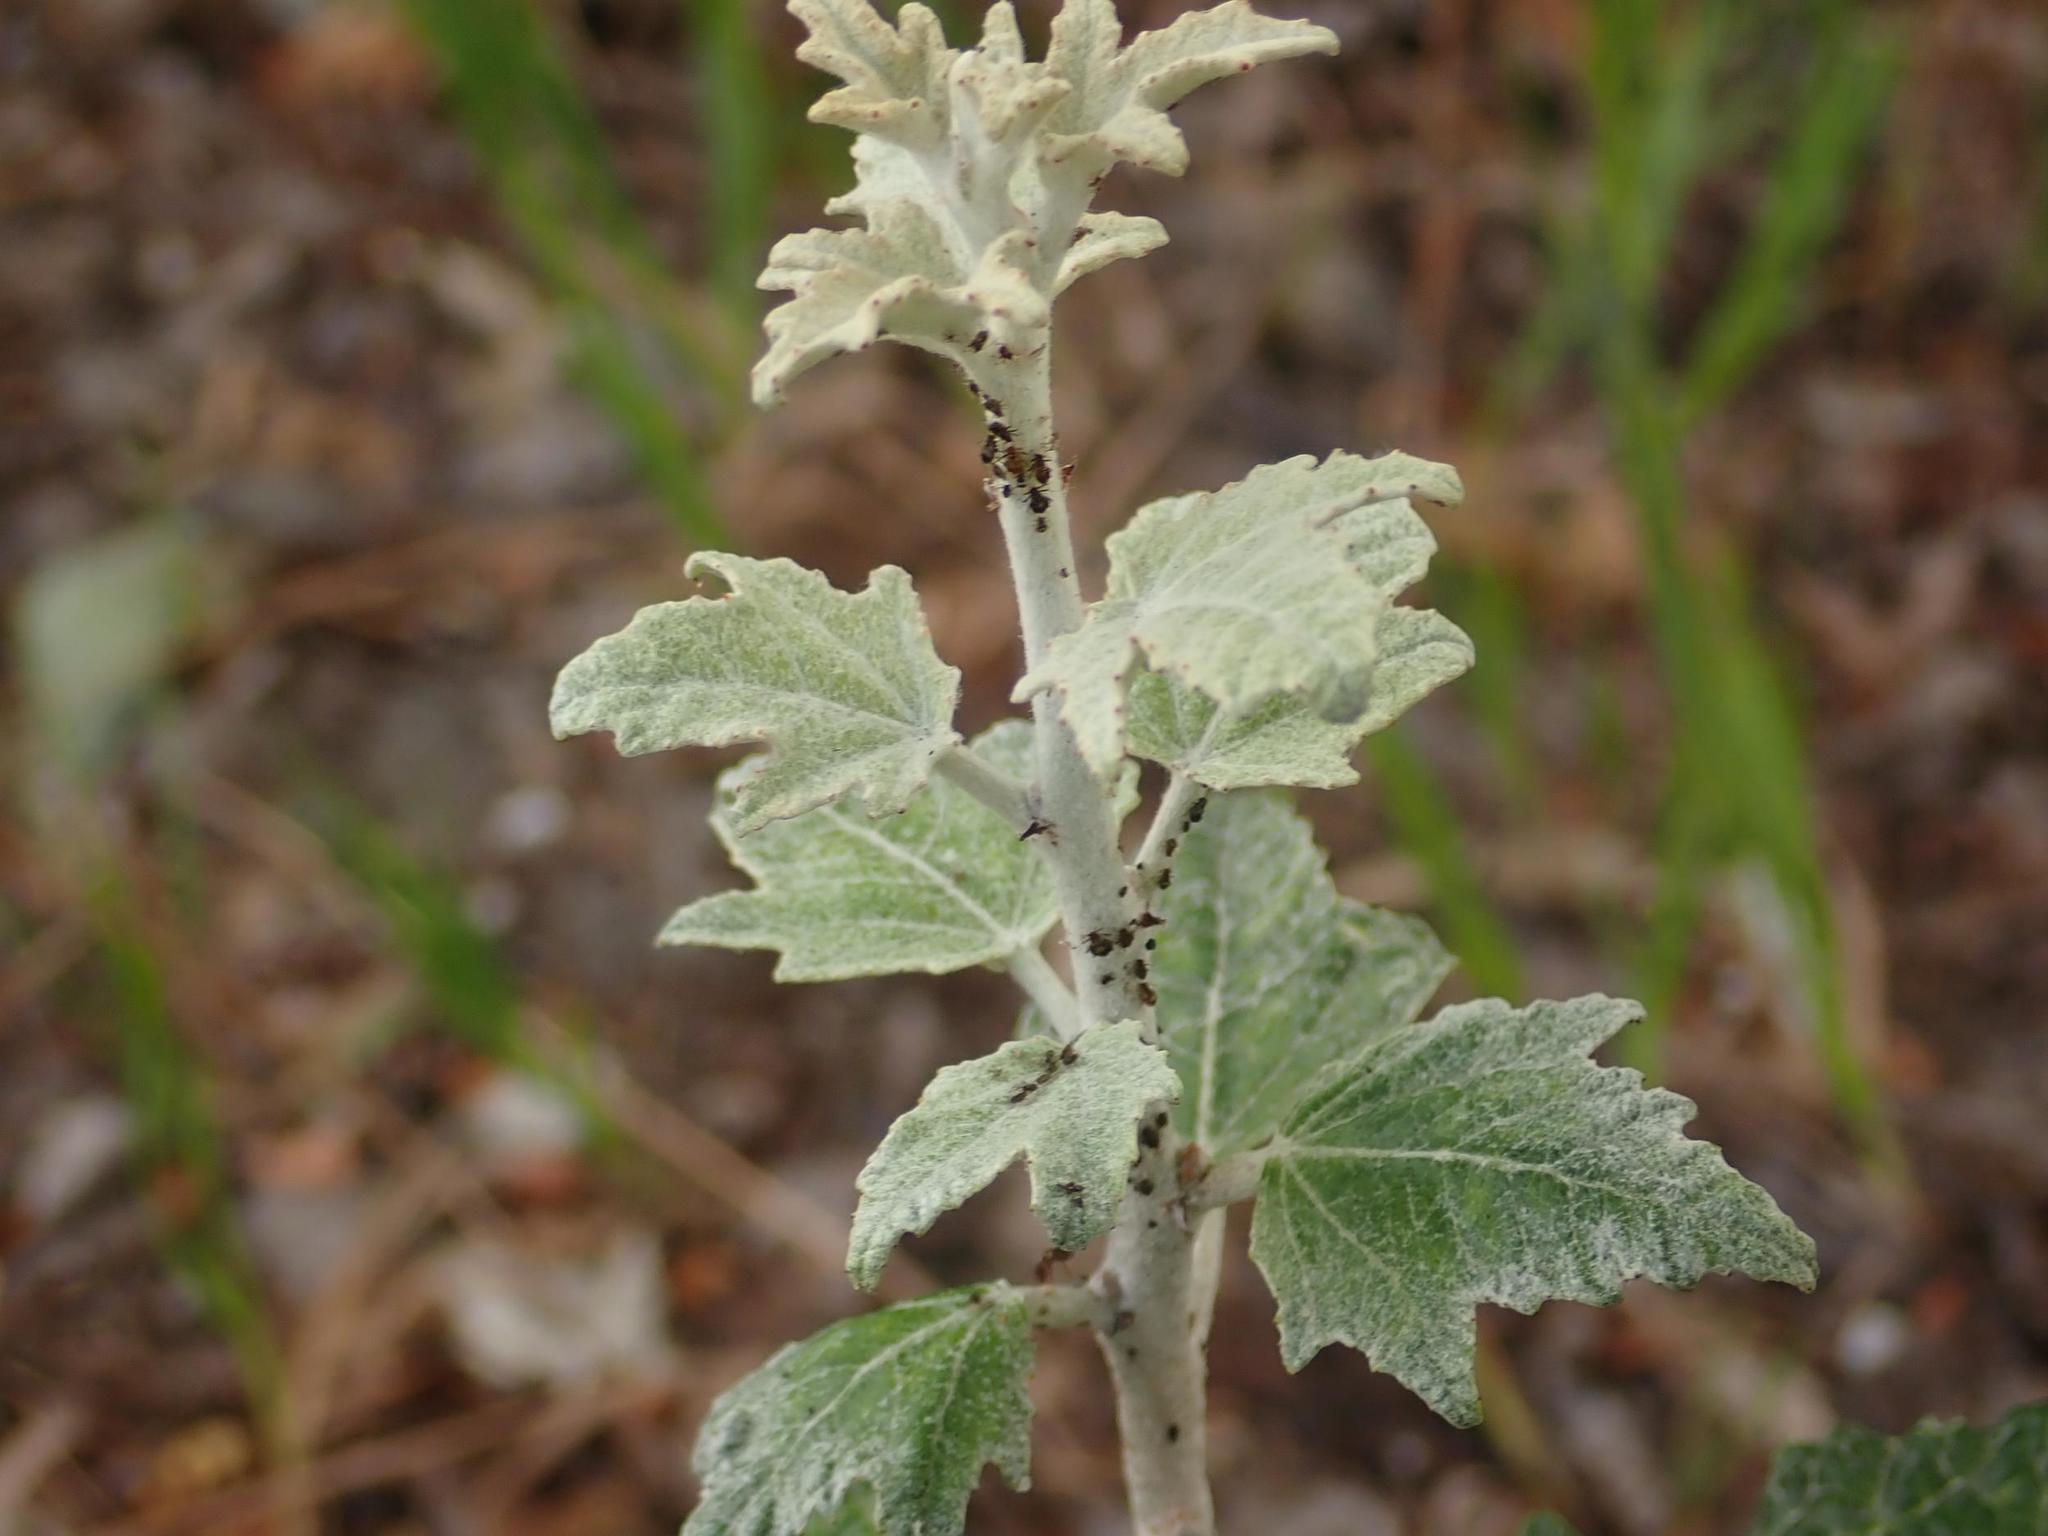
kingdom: Plantae
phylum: Tracheophyta
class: Magnoliopsida
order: Malpighiales
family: Salicaceae
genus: Populus
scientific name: Populus alba
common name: White poplar
